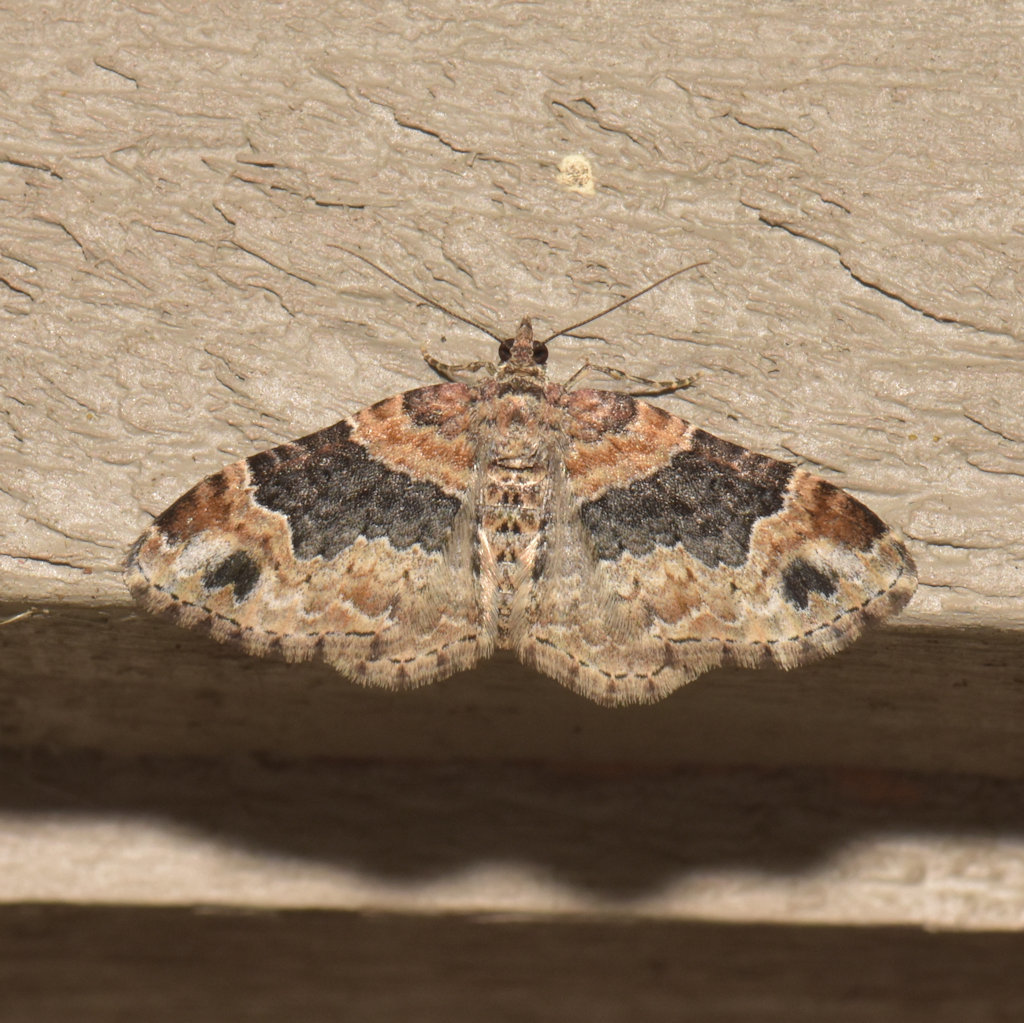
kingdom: Animalia
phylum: Arthropoda
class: Insecta
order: Lepidoptera
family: Geometridae
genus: Xanthorhoe
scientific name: Xanthorhoe ferrugata
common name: Dark-barred twin-spot carpet
